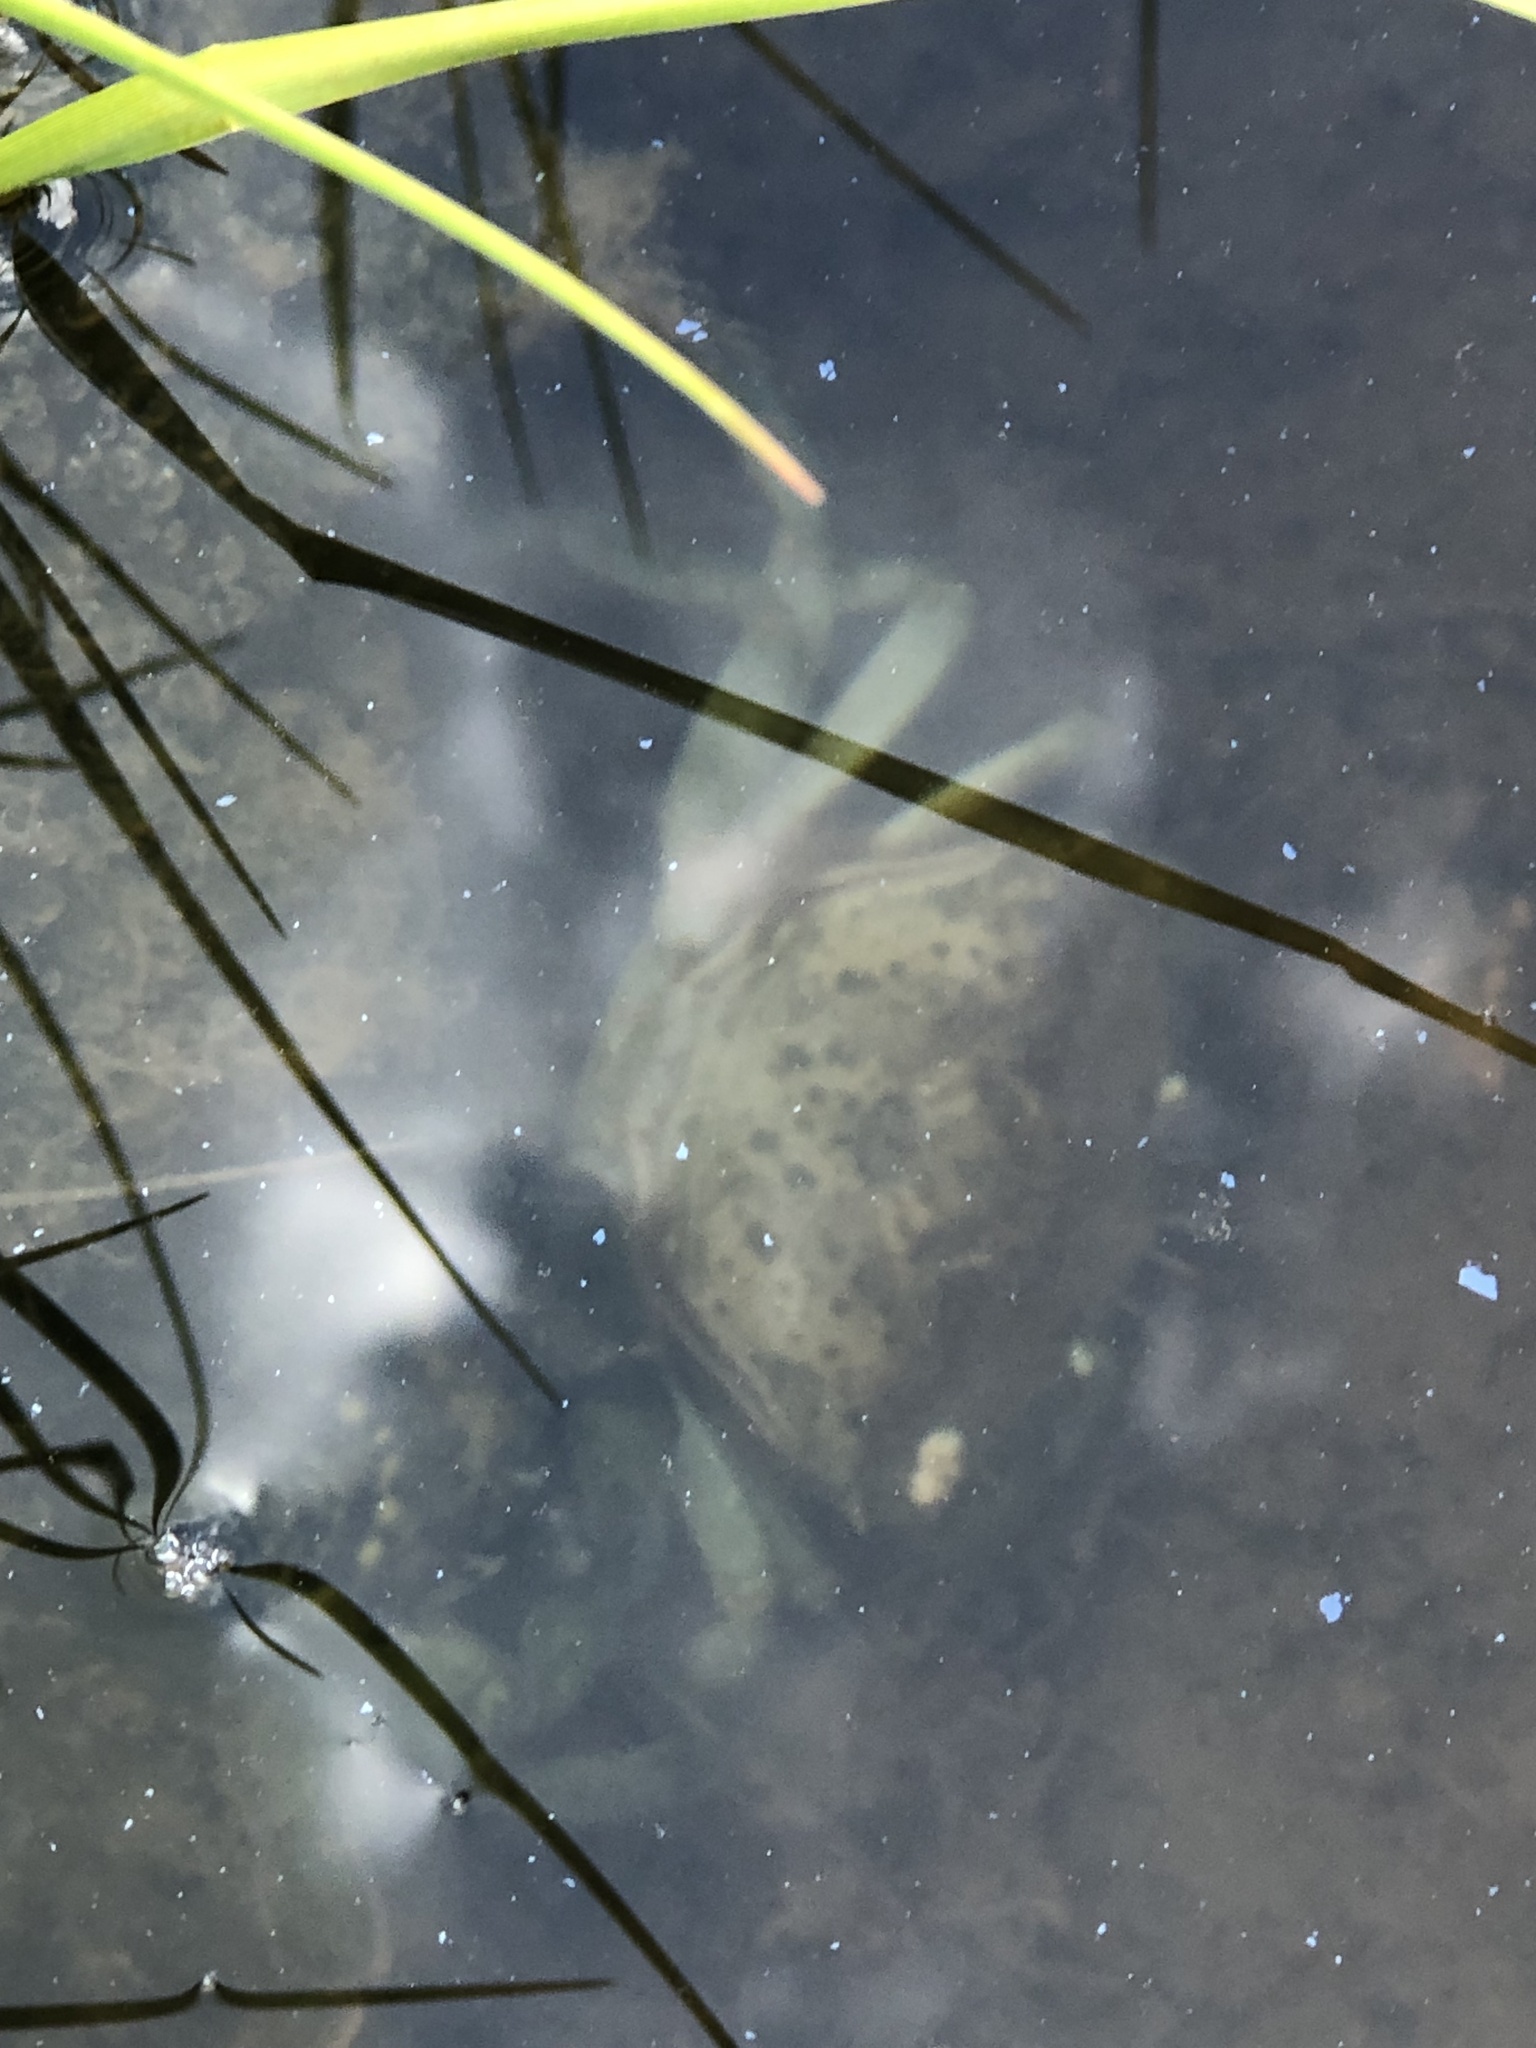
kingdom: Animalia
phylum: Arthropoda
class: Malacostraca
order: Decapoda
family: Carcinidae
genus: Carcinus
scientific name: Carcinus maenas
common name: European green crab
